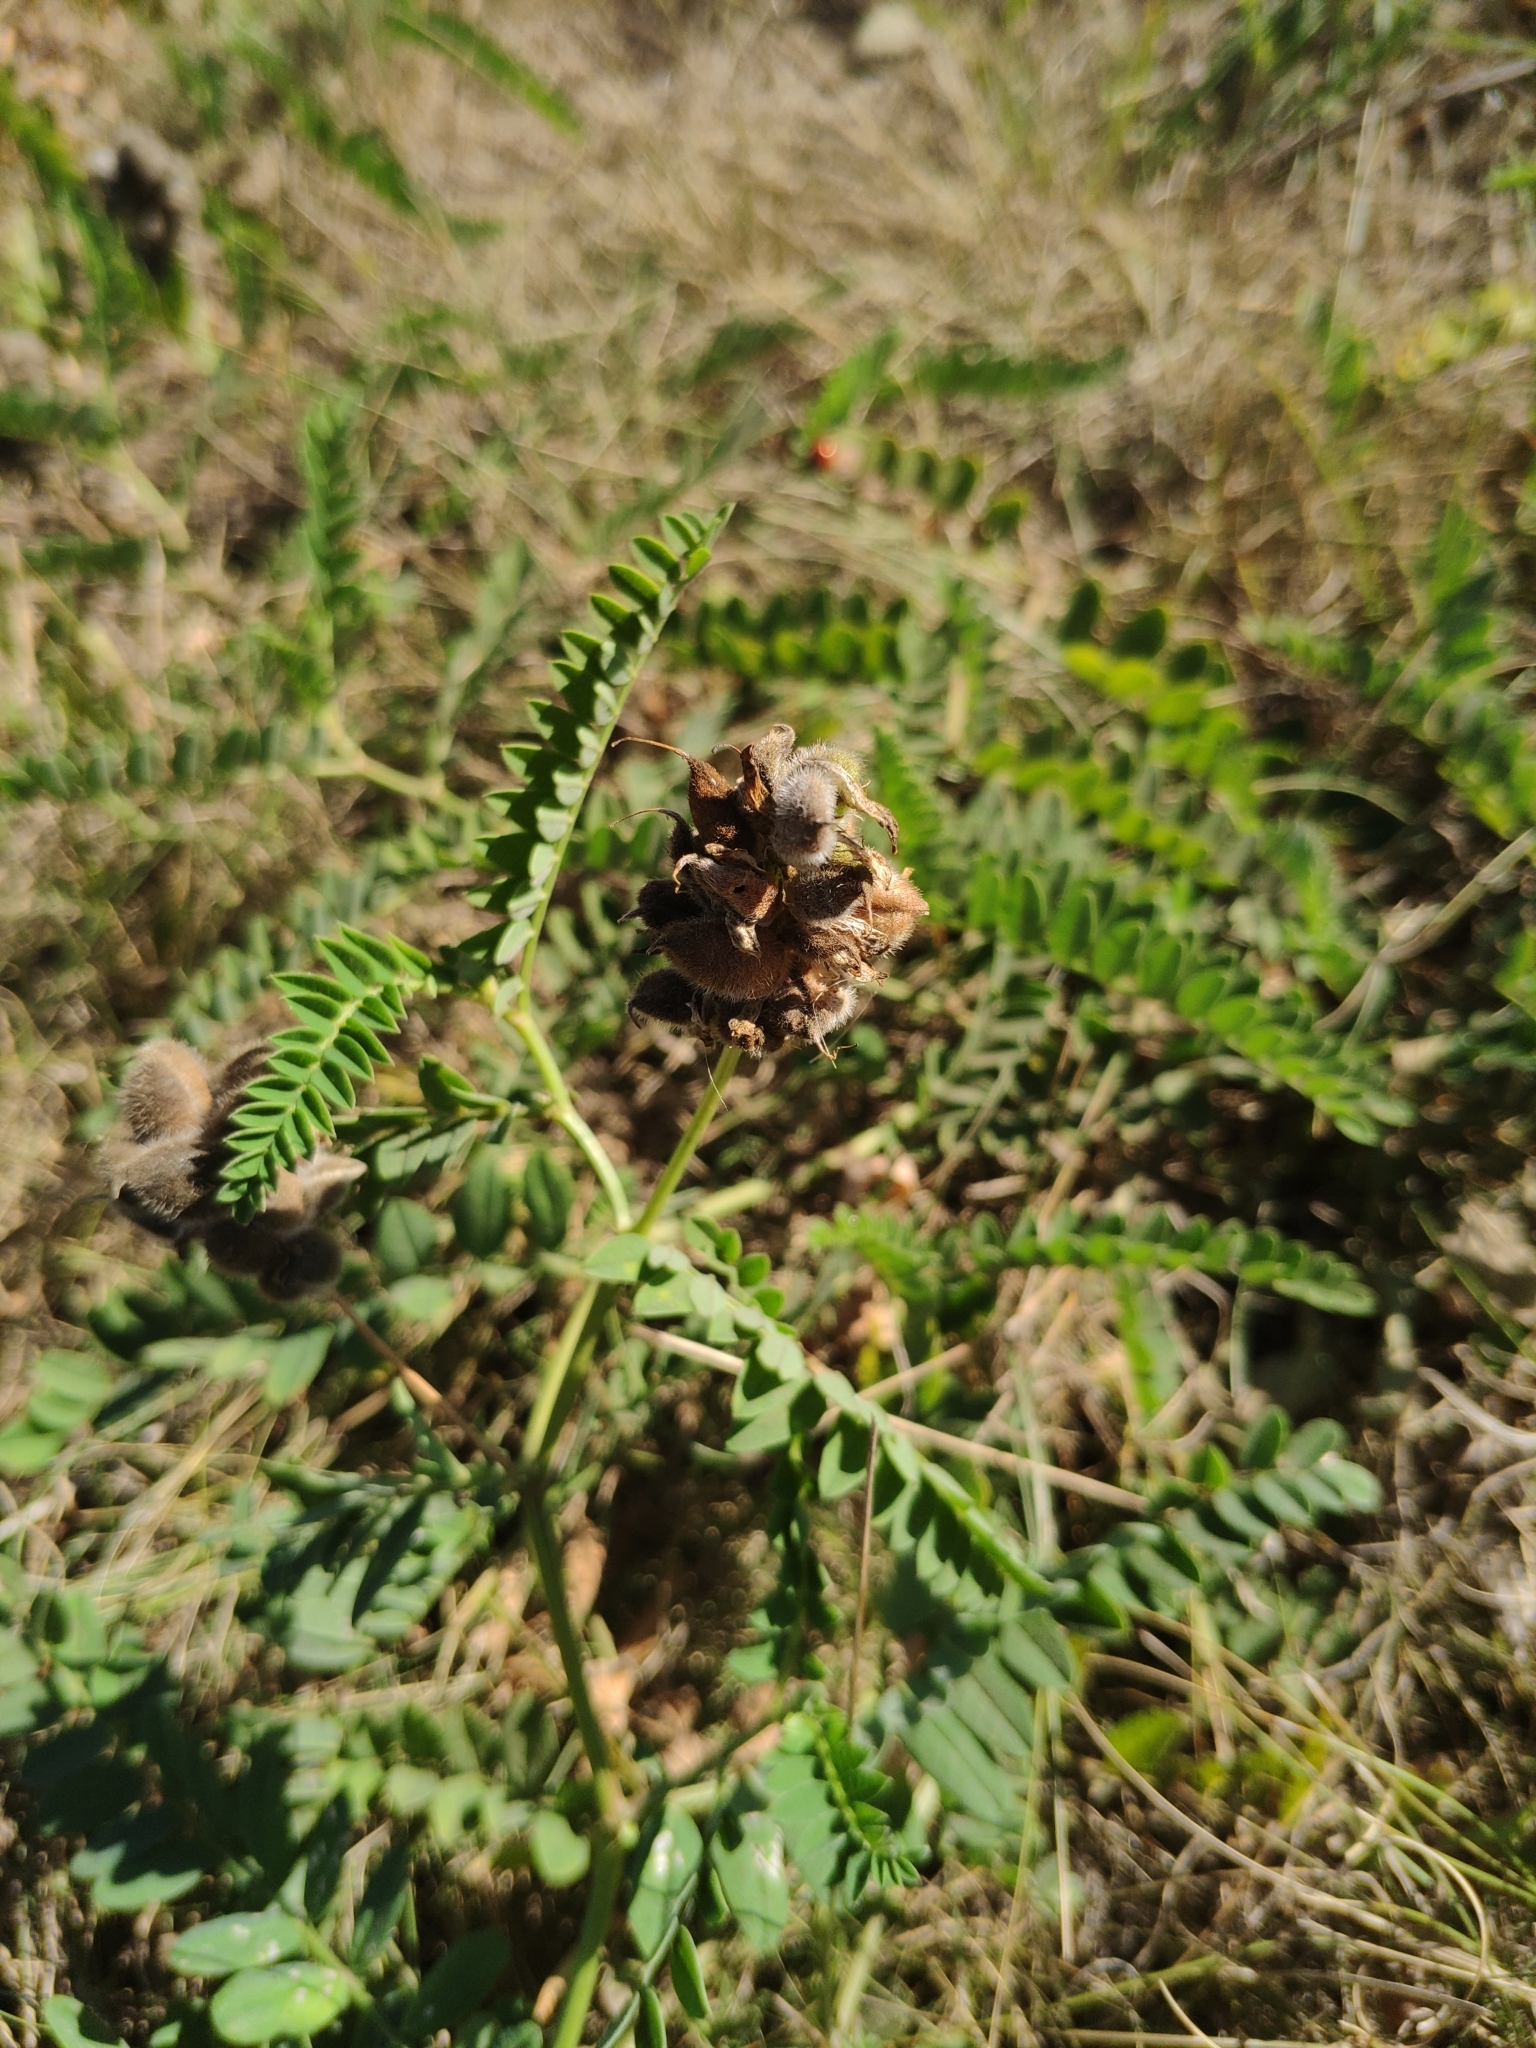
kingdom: Plantae
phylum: Tracheophyta
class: Magnoliopsida
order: Fabales
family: Fabaceae
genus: Astragalus
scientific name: Astragalus cicer
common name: Chick-pea milk-vetch
